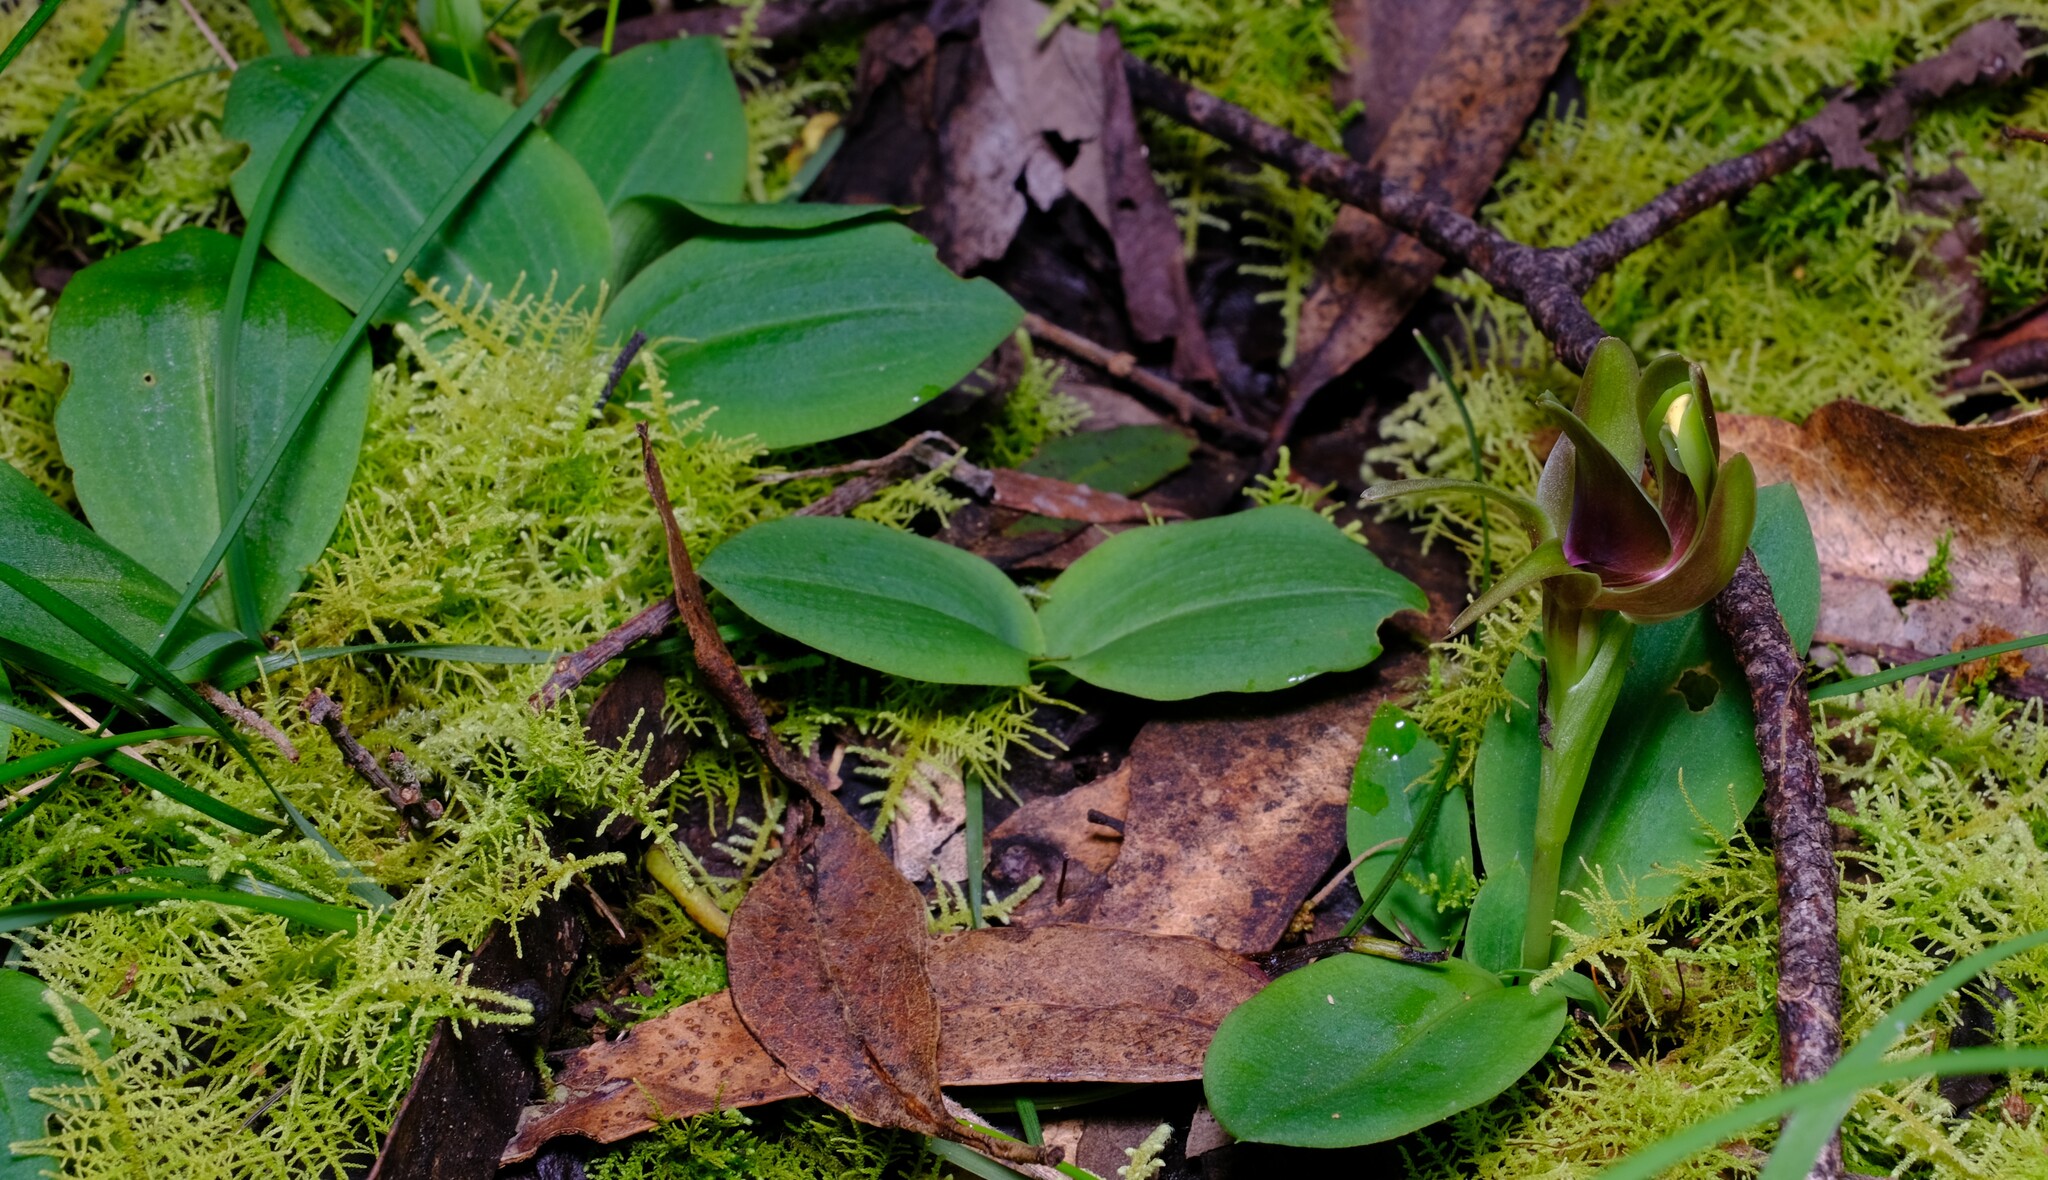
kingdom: Plantae
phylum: Tracheophyta
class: Liliopsida
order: Asparagales
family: Orchidaceae
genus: Chiloglottis
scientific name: Chiloglottis valida
